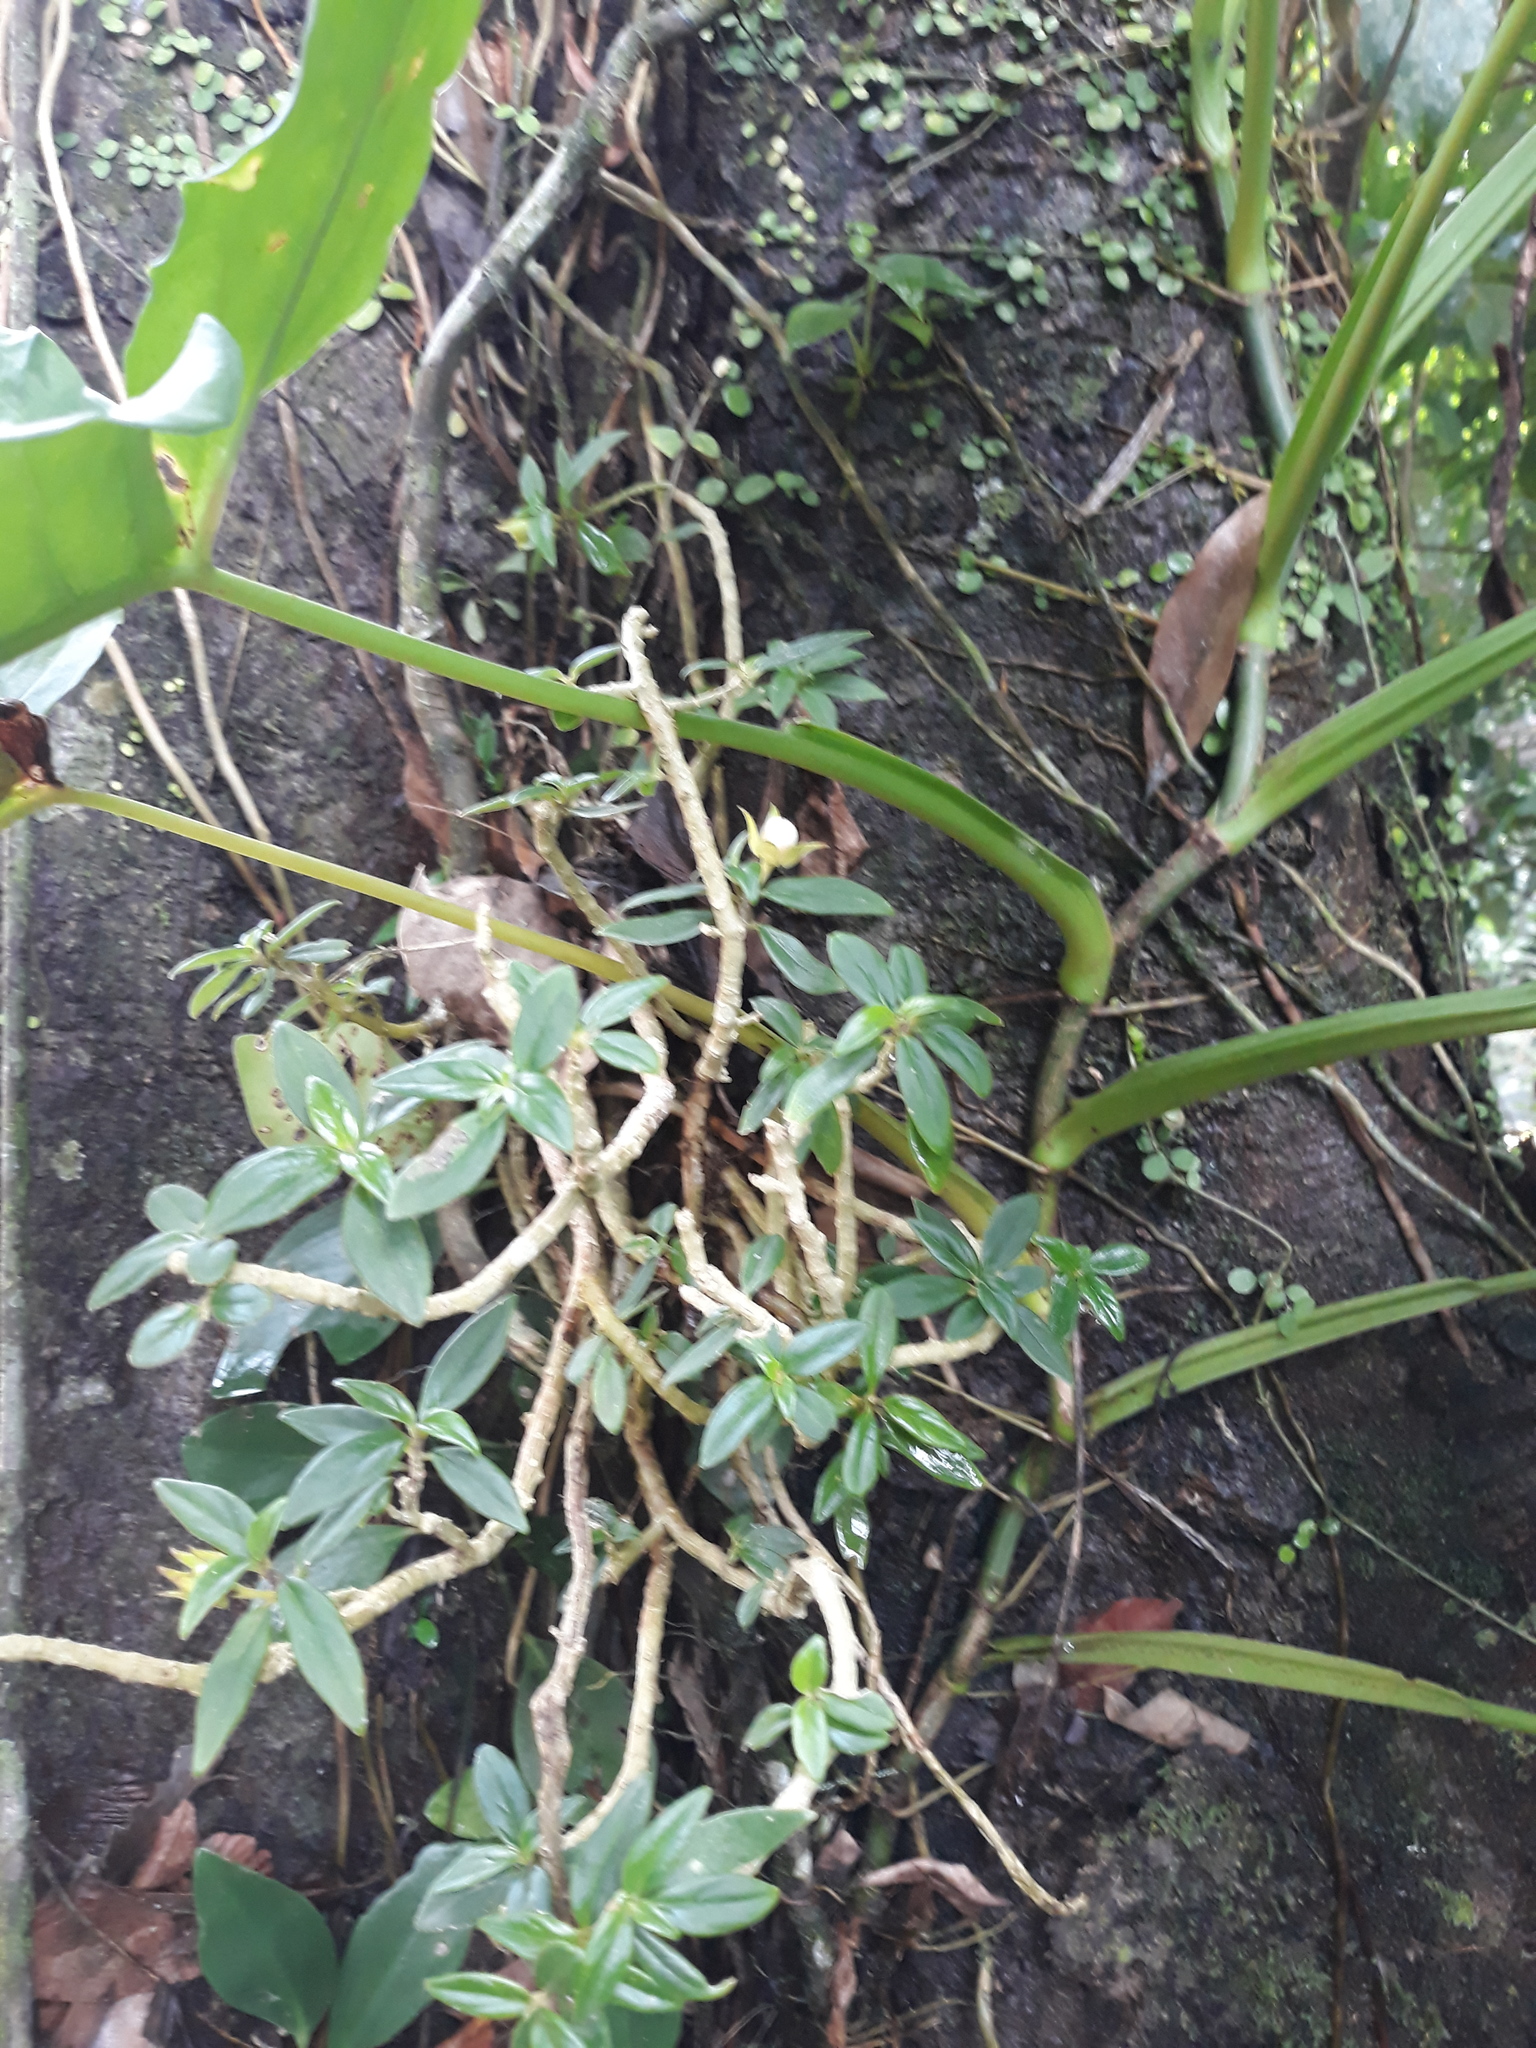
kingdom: Plantae
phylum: Tracheophyta
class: Magnoliopsida
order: Lamiales
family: Gesneriaceae
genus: Columnea
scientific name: Columnea purpusii
